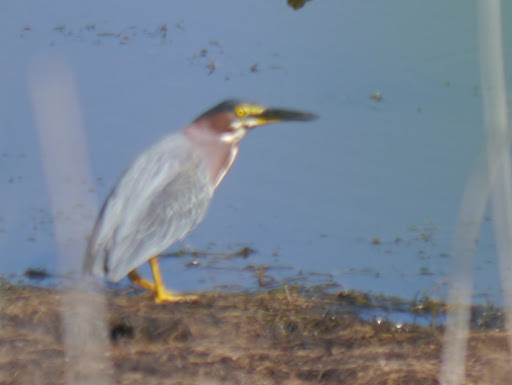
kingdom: Animalia
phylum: Chordata
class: Aves
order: Pelecaniformes
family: Ardeidae
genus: Butorides
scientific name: Butorides virescens
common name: Green heron
